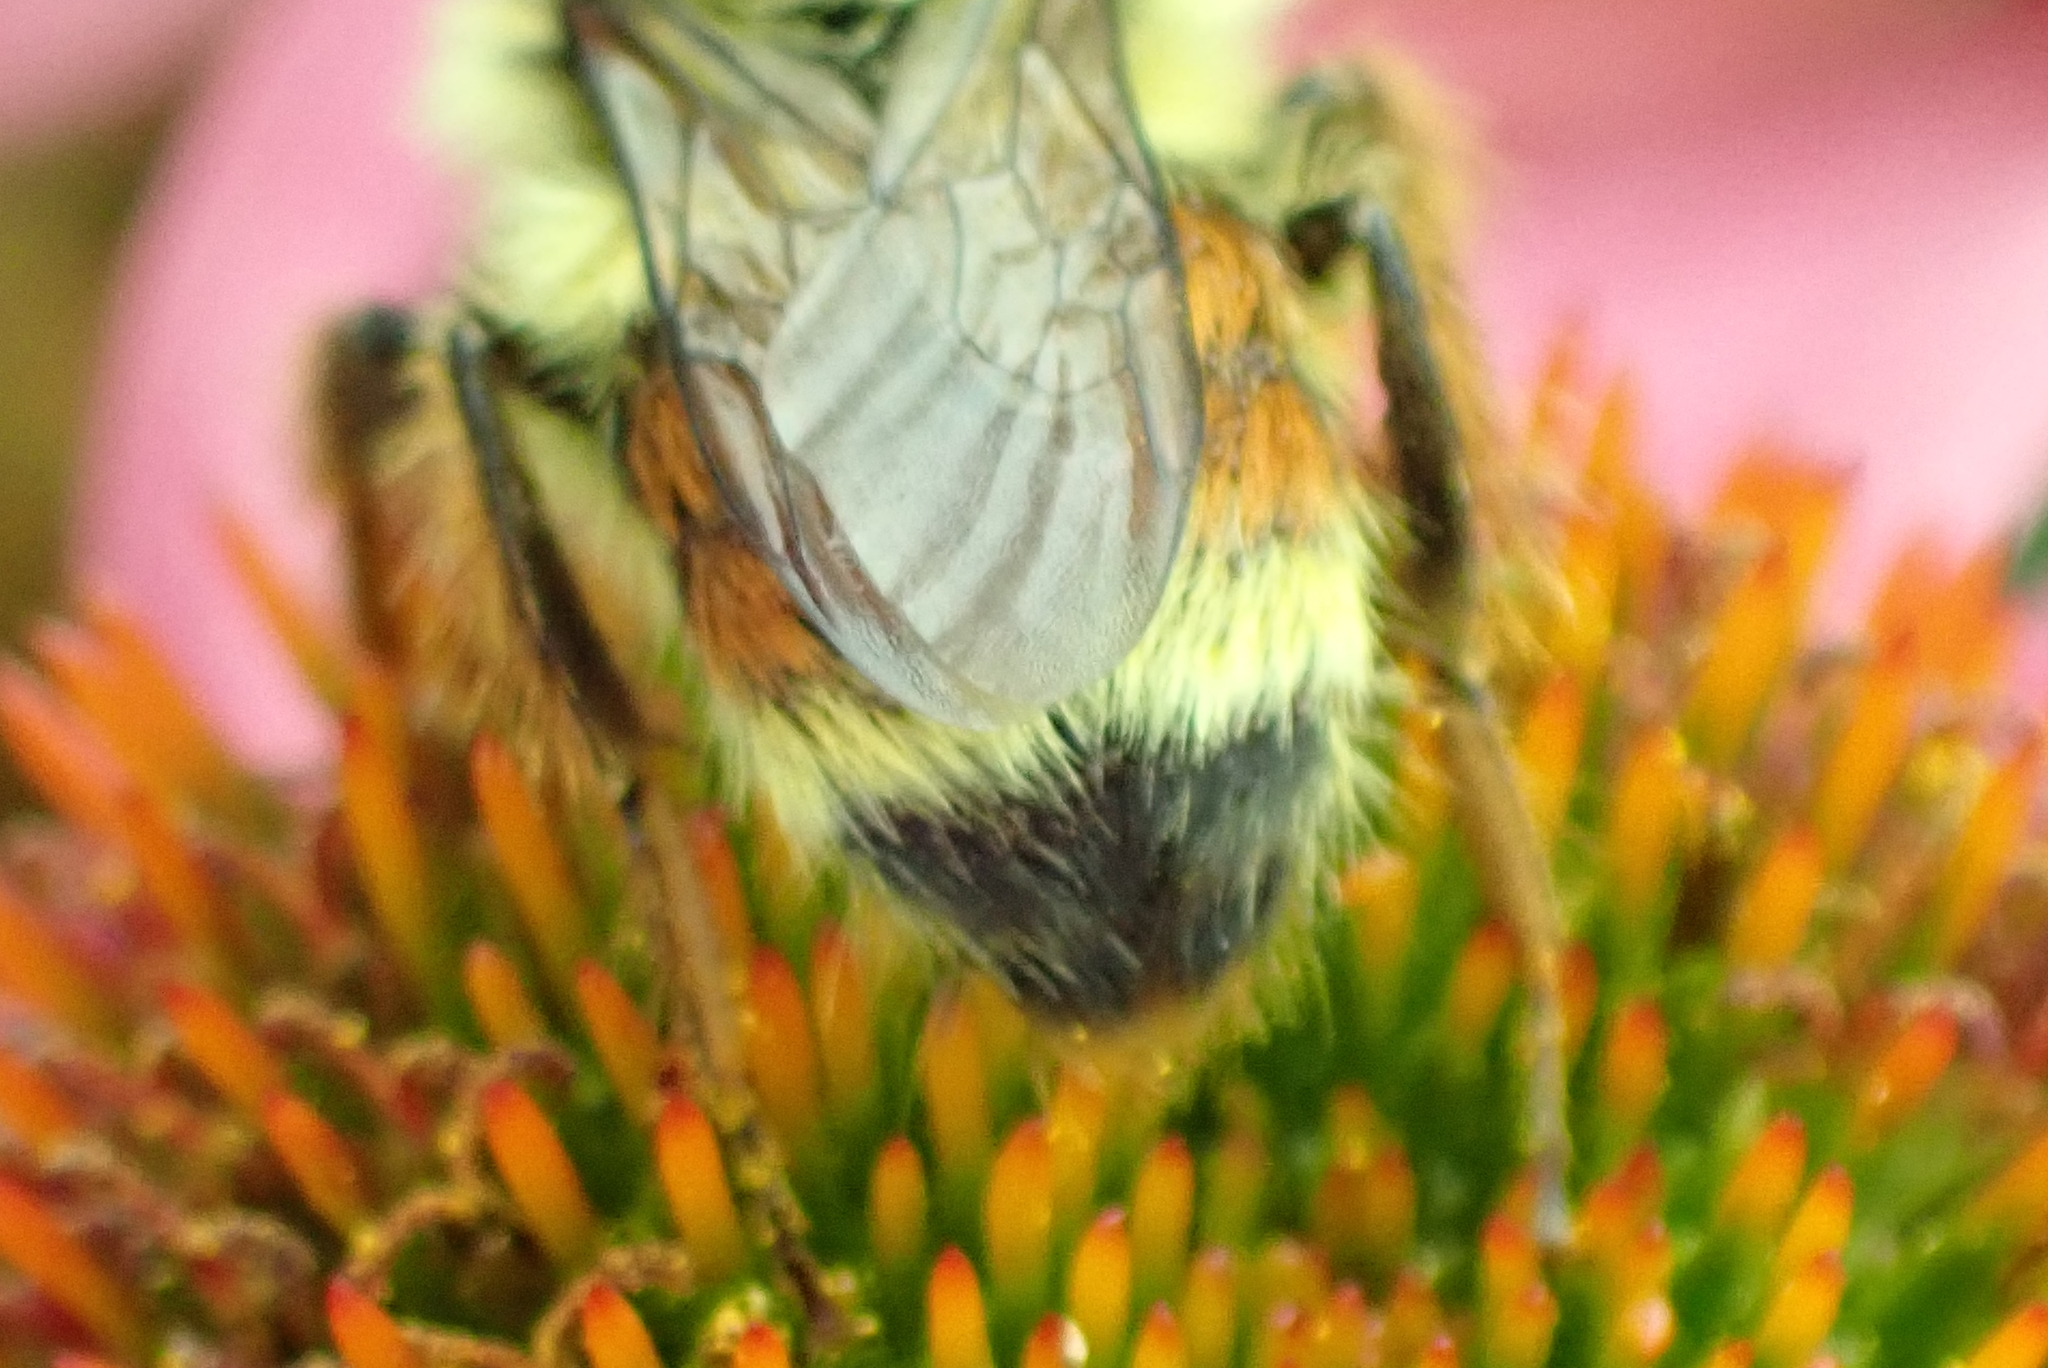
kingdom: Animalia
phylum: Arthropoda
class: Insecta
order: Hymenoptera
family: Apidae
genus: Bombus
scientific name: Bombus vancouverensis
